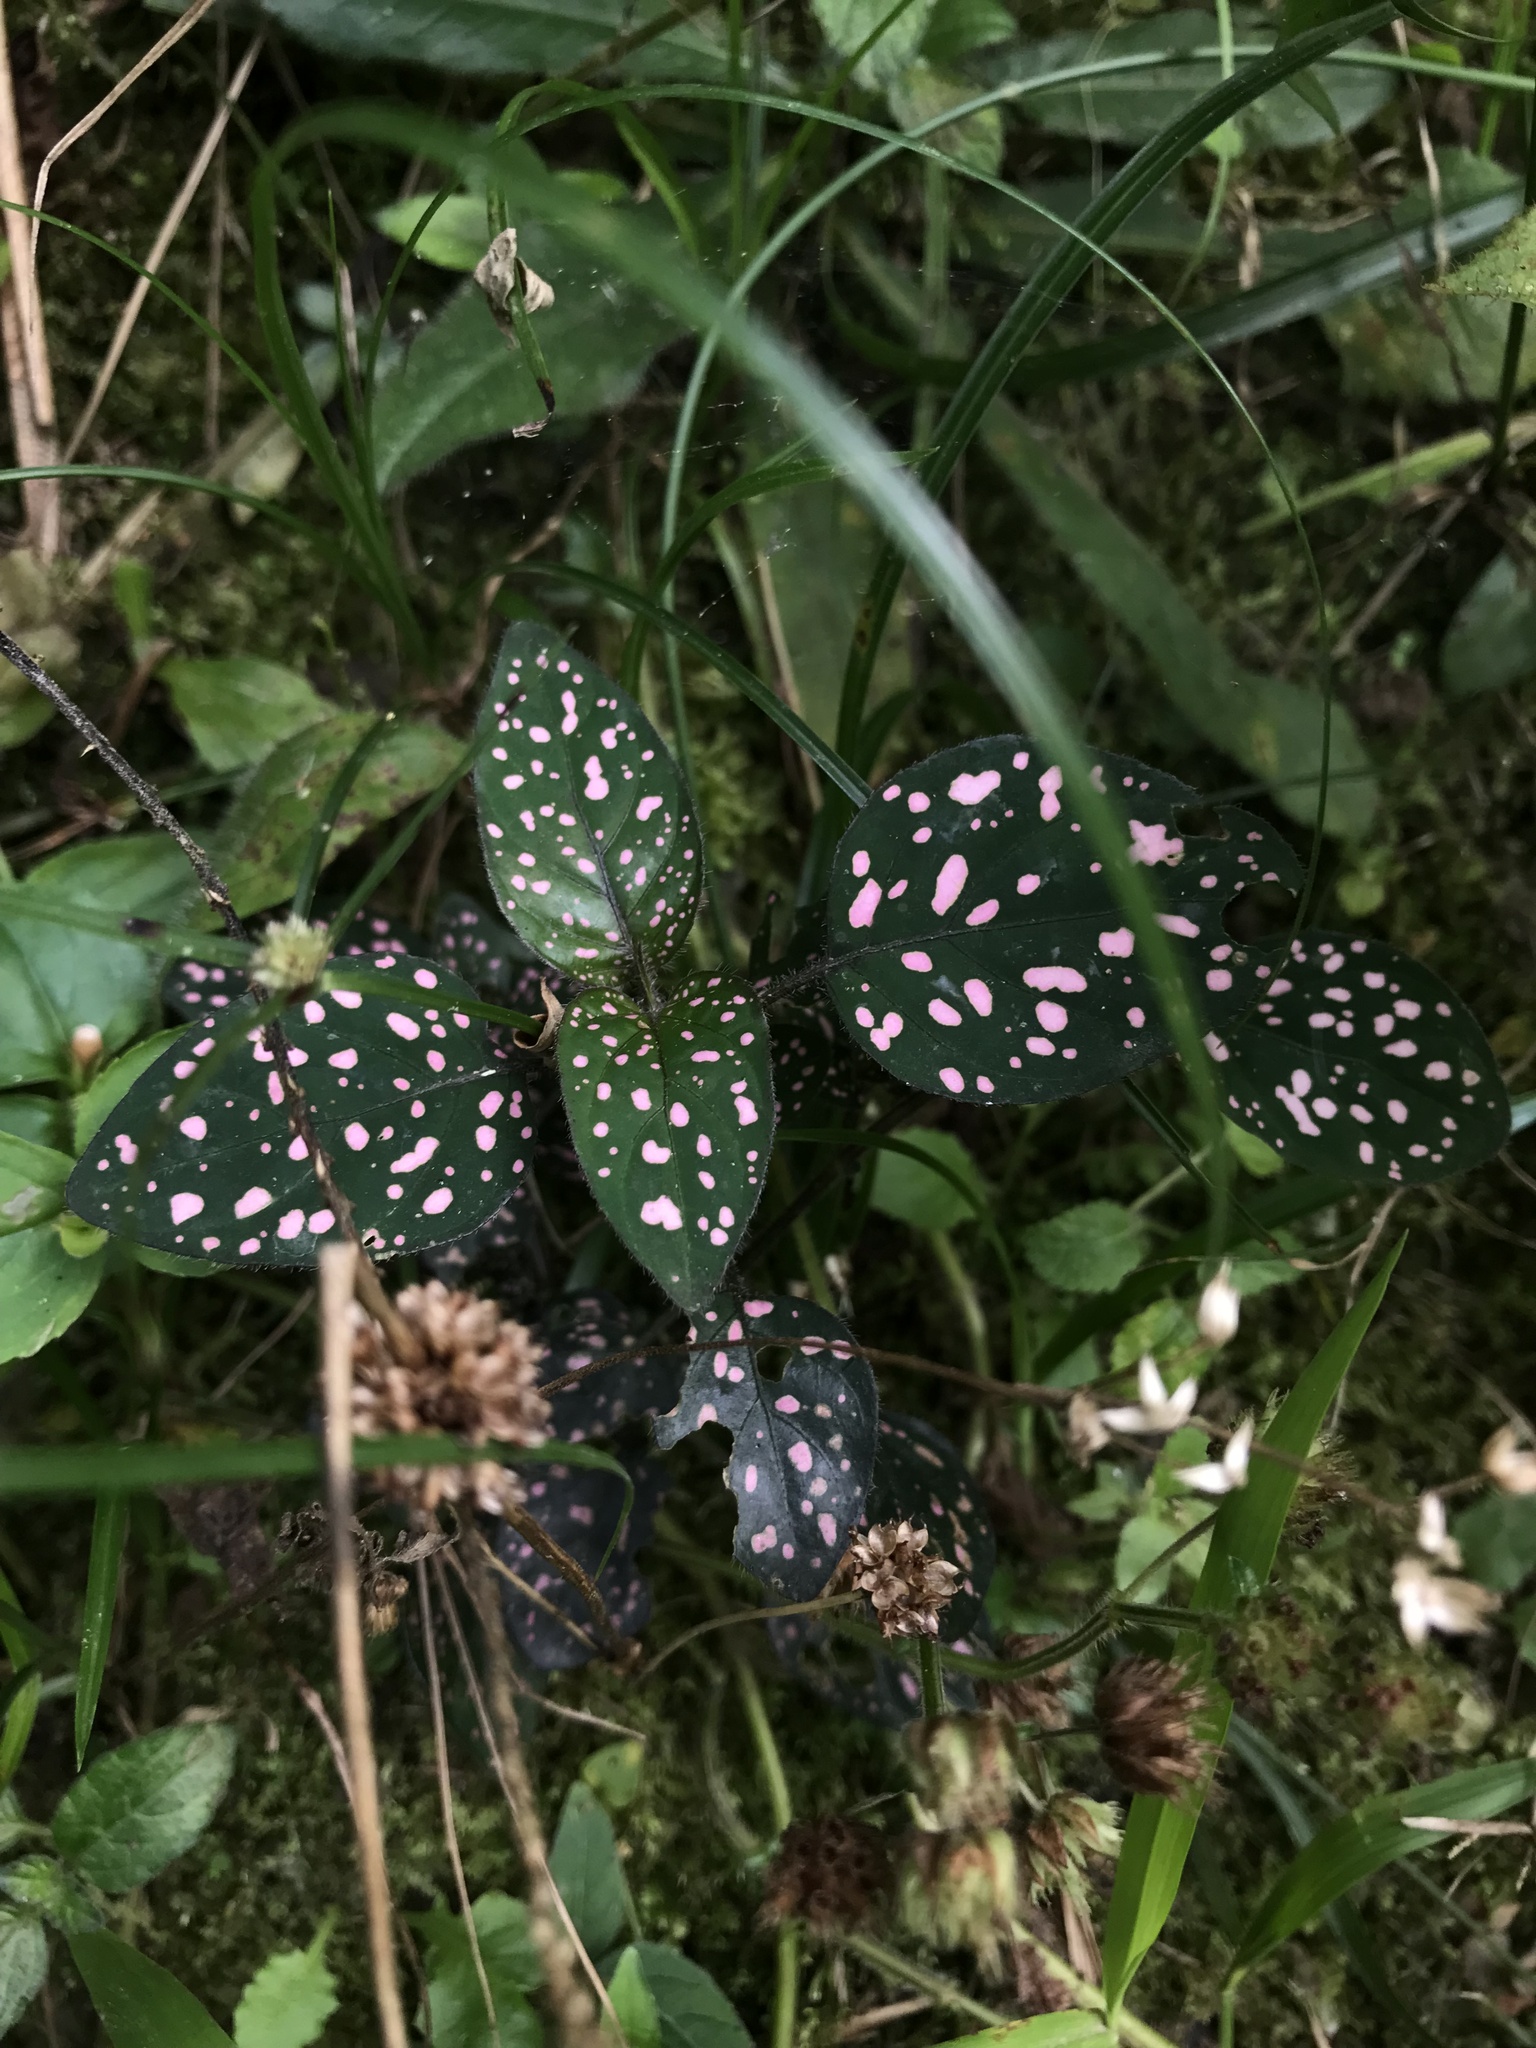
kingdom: Plantae
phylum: Tracheophyta
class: Magnoliopsida
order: Lamiales
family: Acanthaceae
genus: Hypoestes
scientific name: Hypoestes phyllostachya
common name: Polkadot-plant
